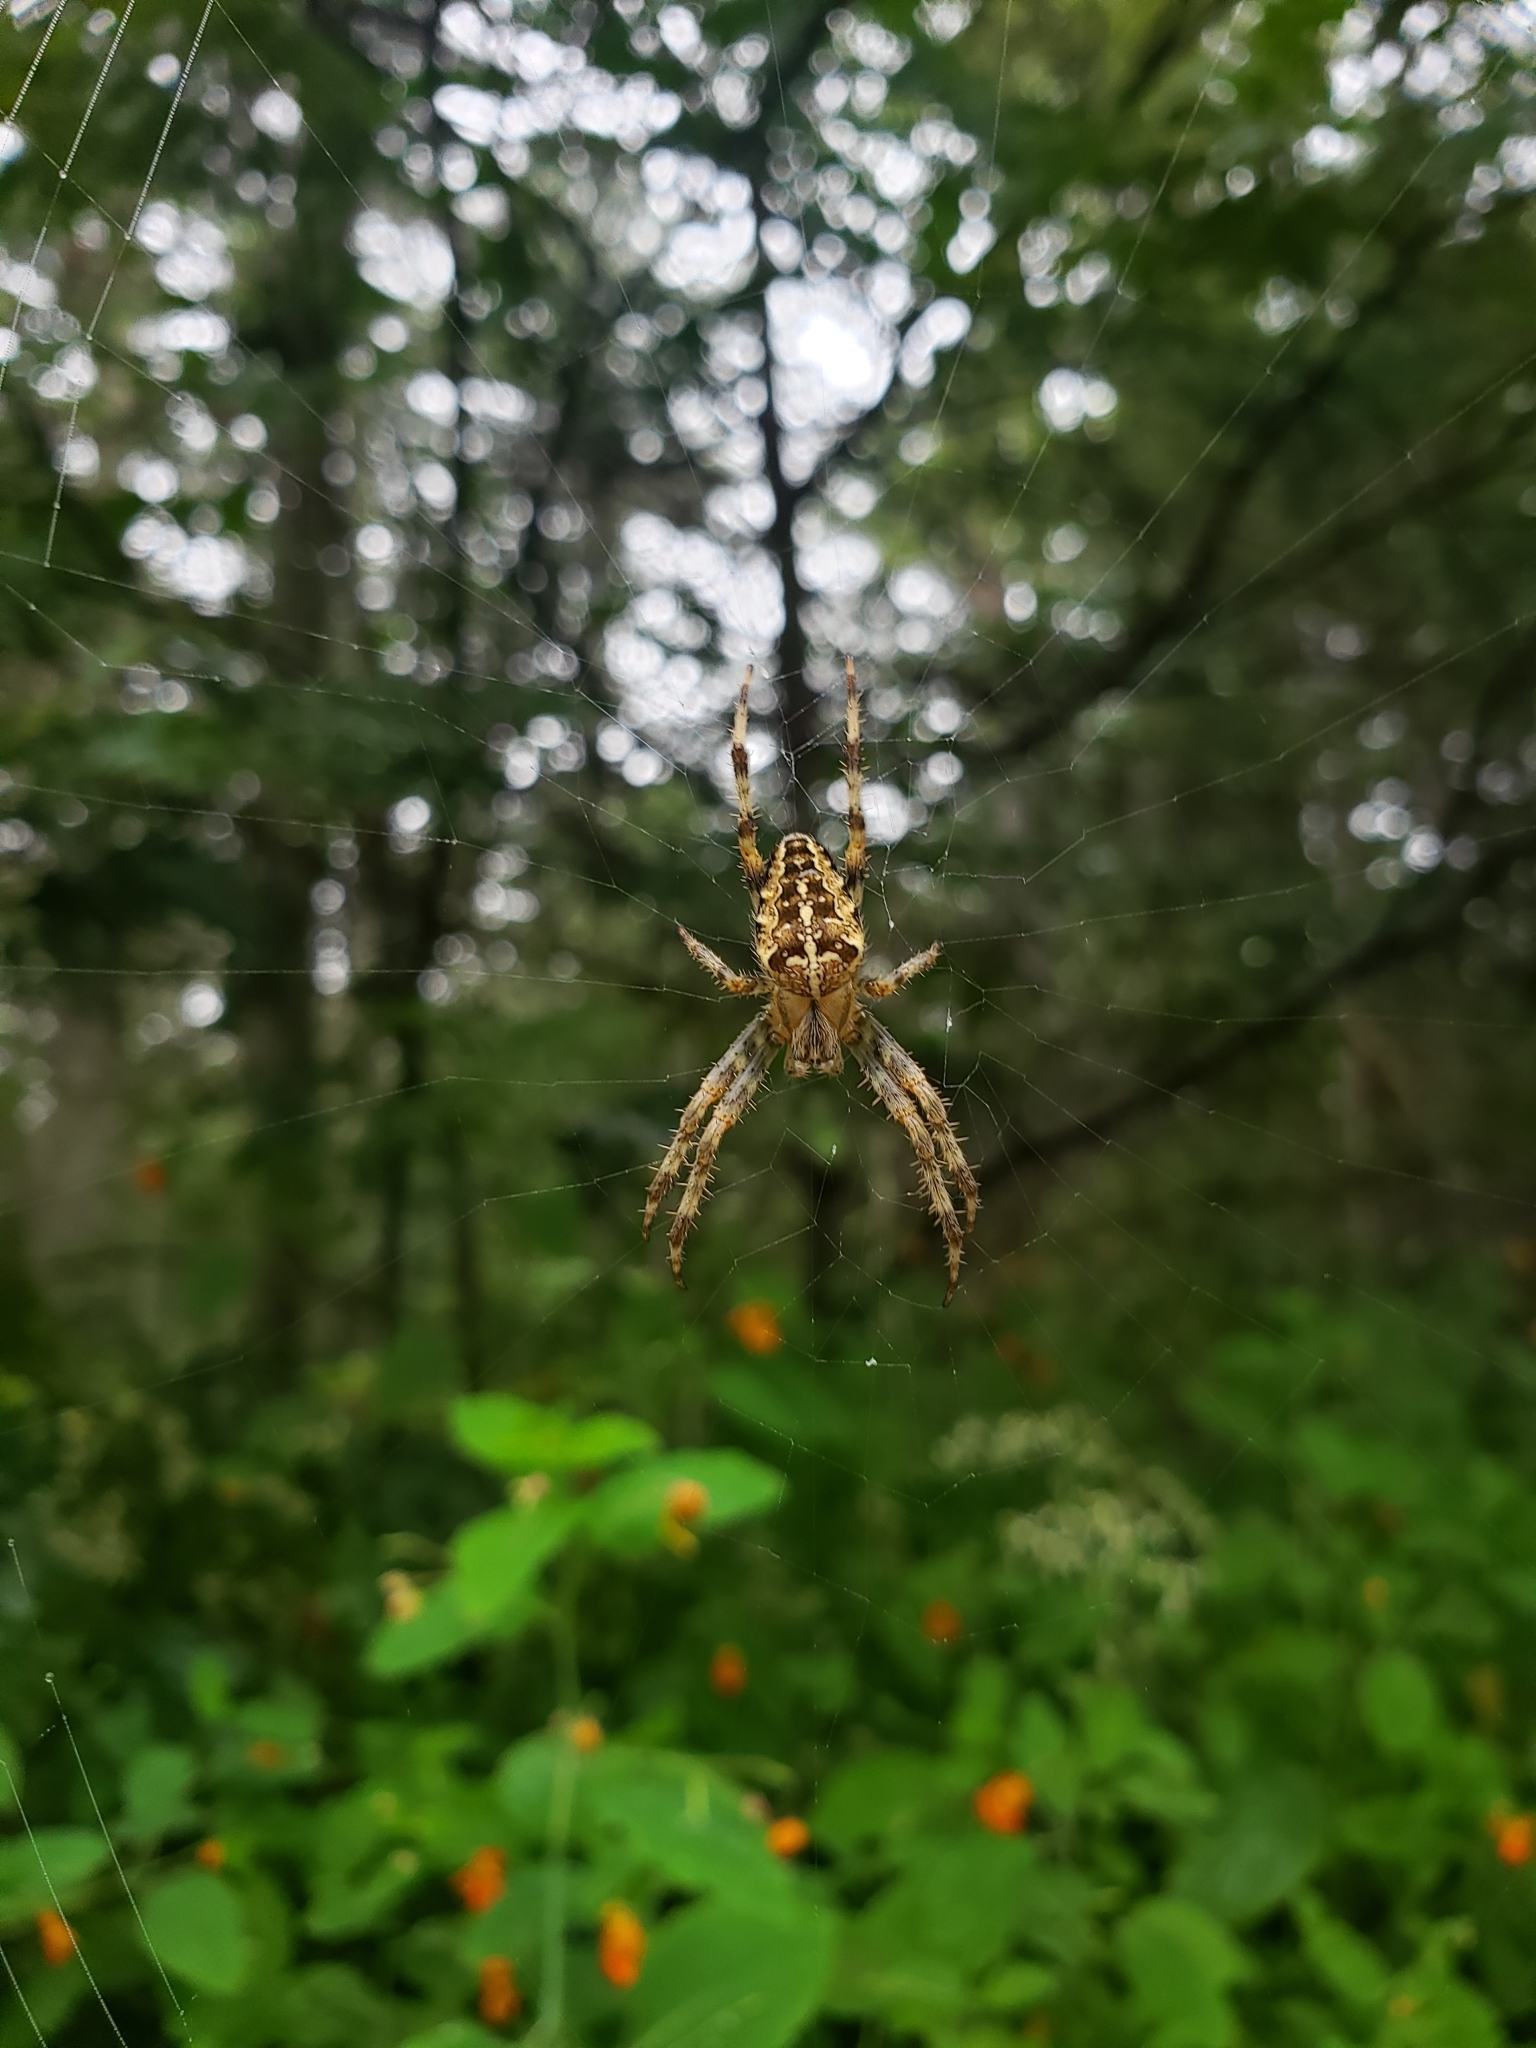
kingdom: Animalia
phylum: Arthropoda
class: Arachnida
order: Araneae
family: Araneidae
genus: Araneus
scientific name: Araneus diadematus
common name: Cross orbweaver
